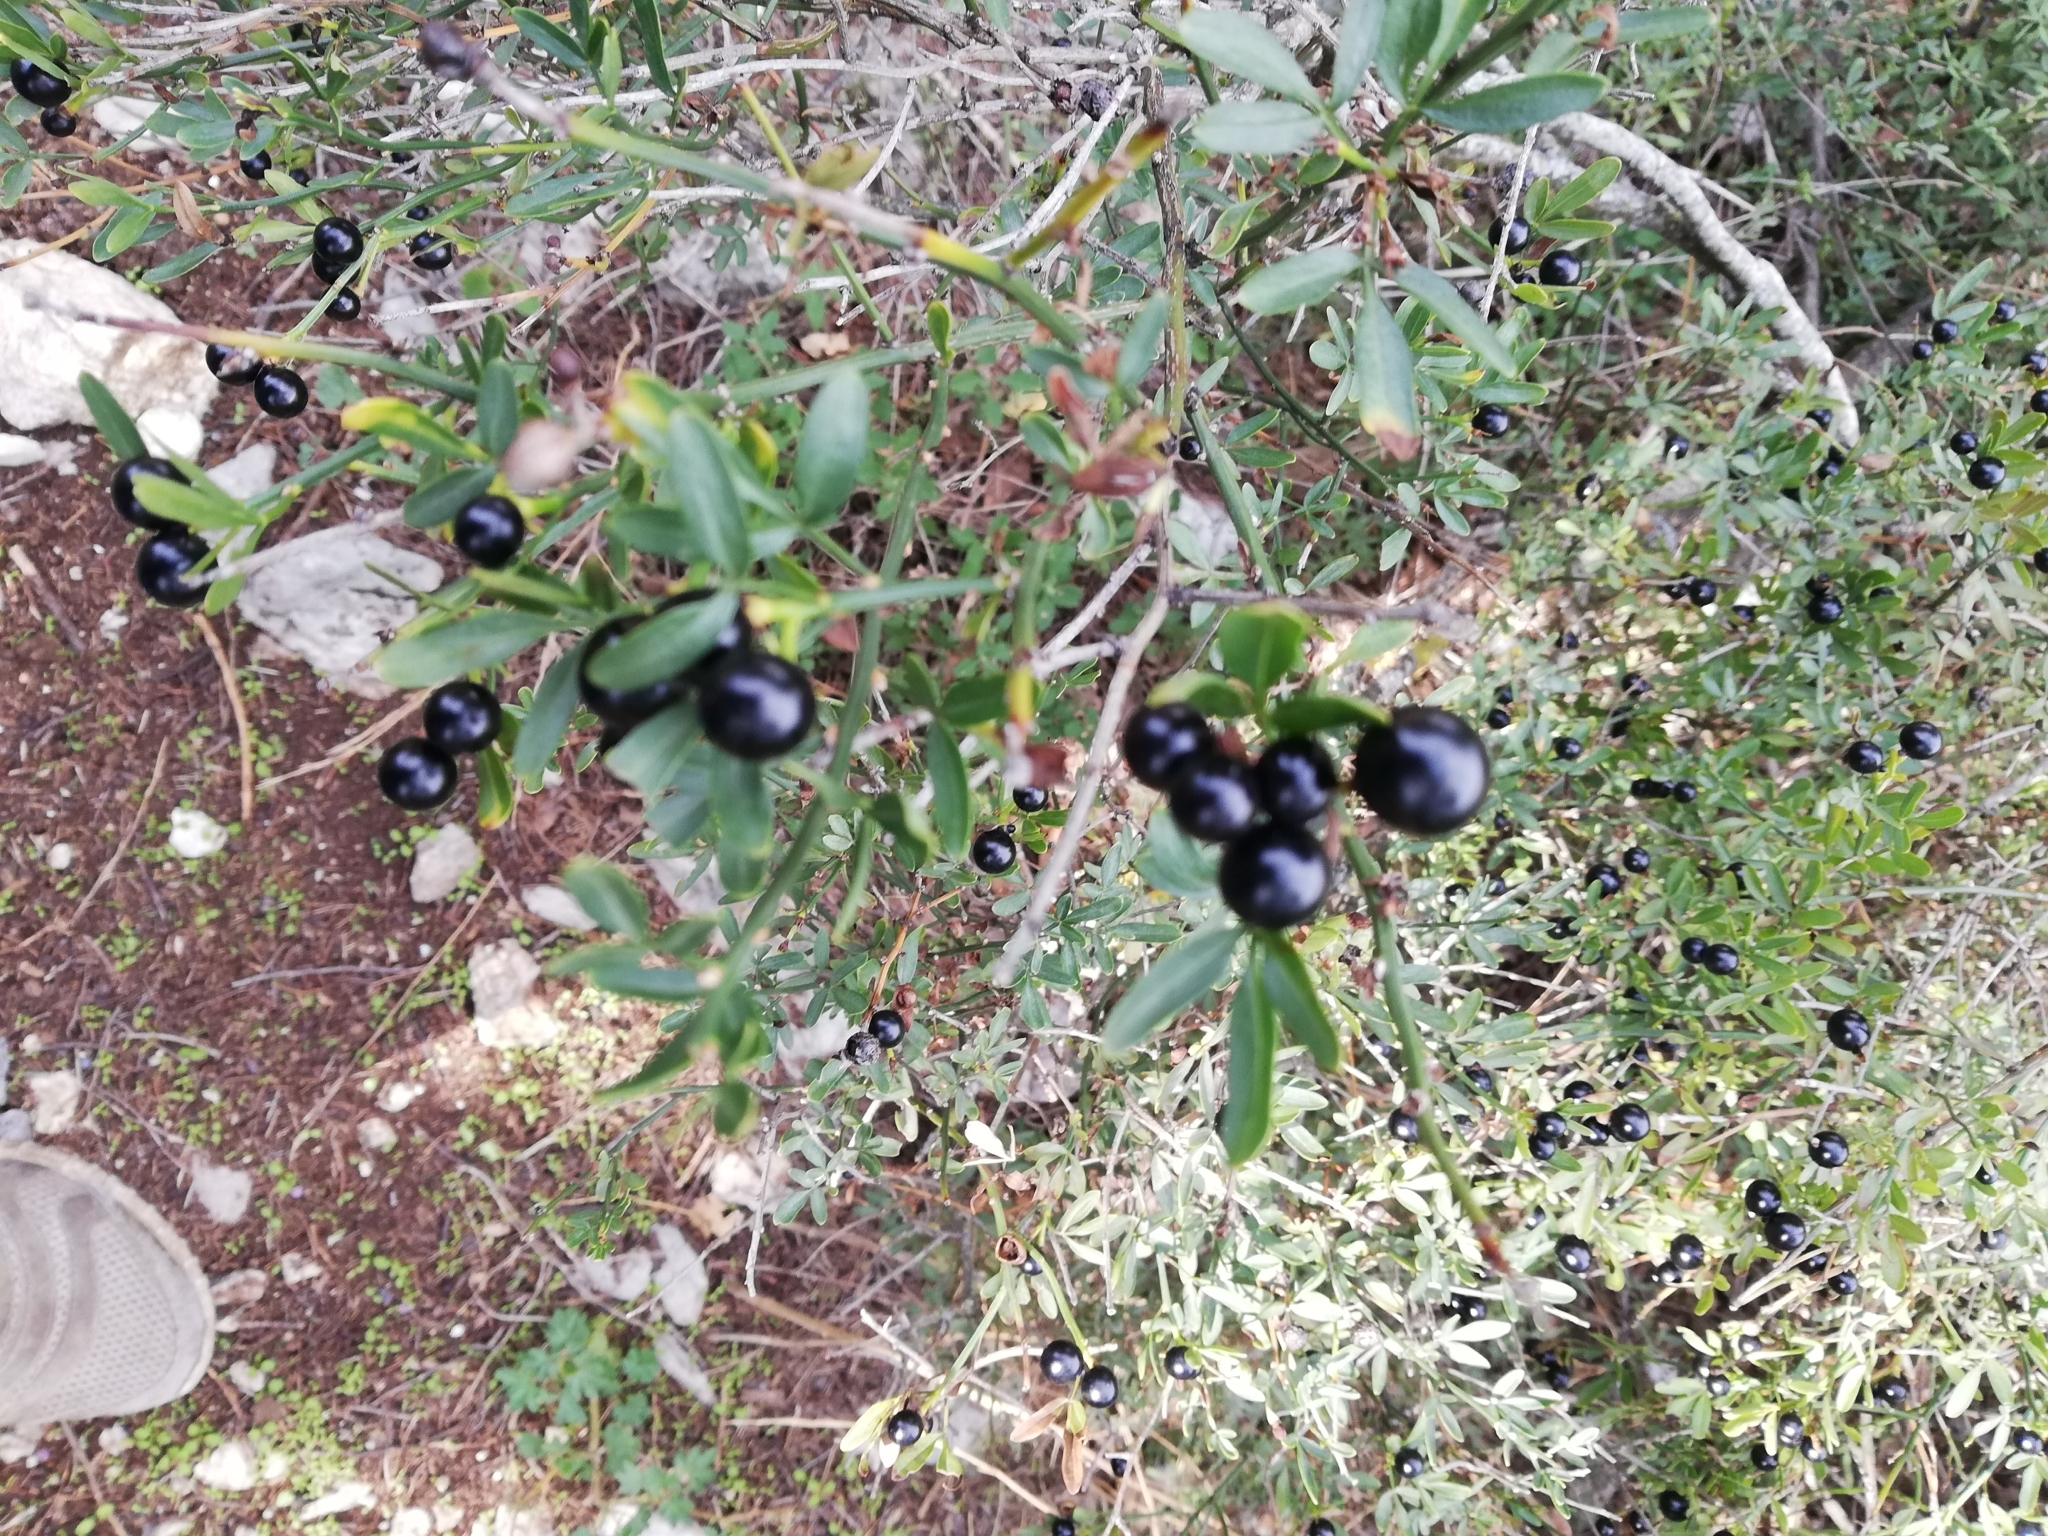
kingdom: Plantae
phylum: Tracheophyta
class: Magnoliopsida
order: Lamiales
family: Oleaceae
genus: Chrysojasminum
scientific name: Chrysojasminum fruticans
